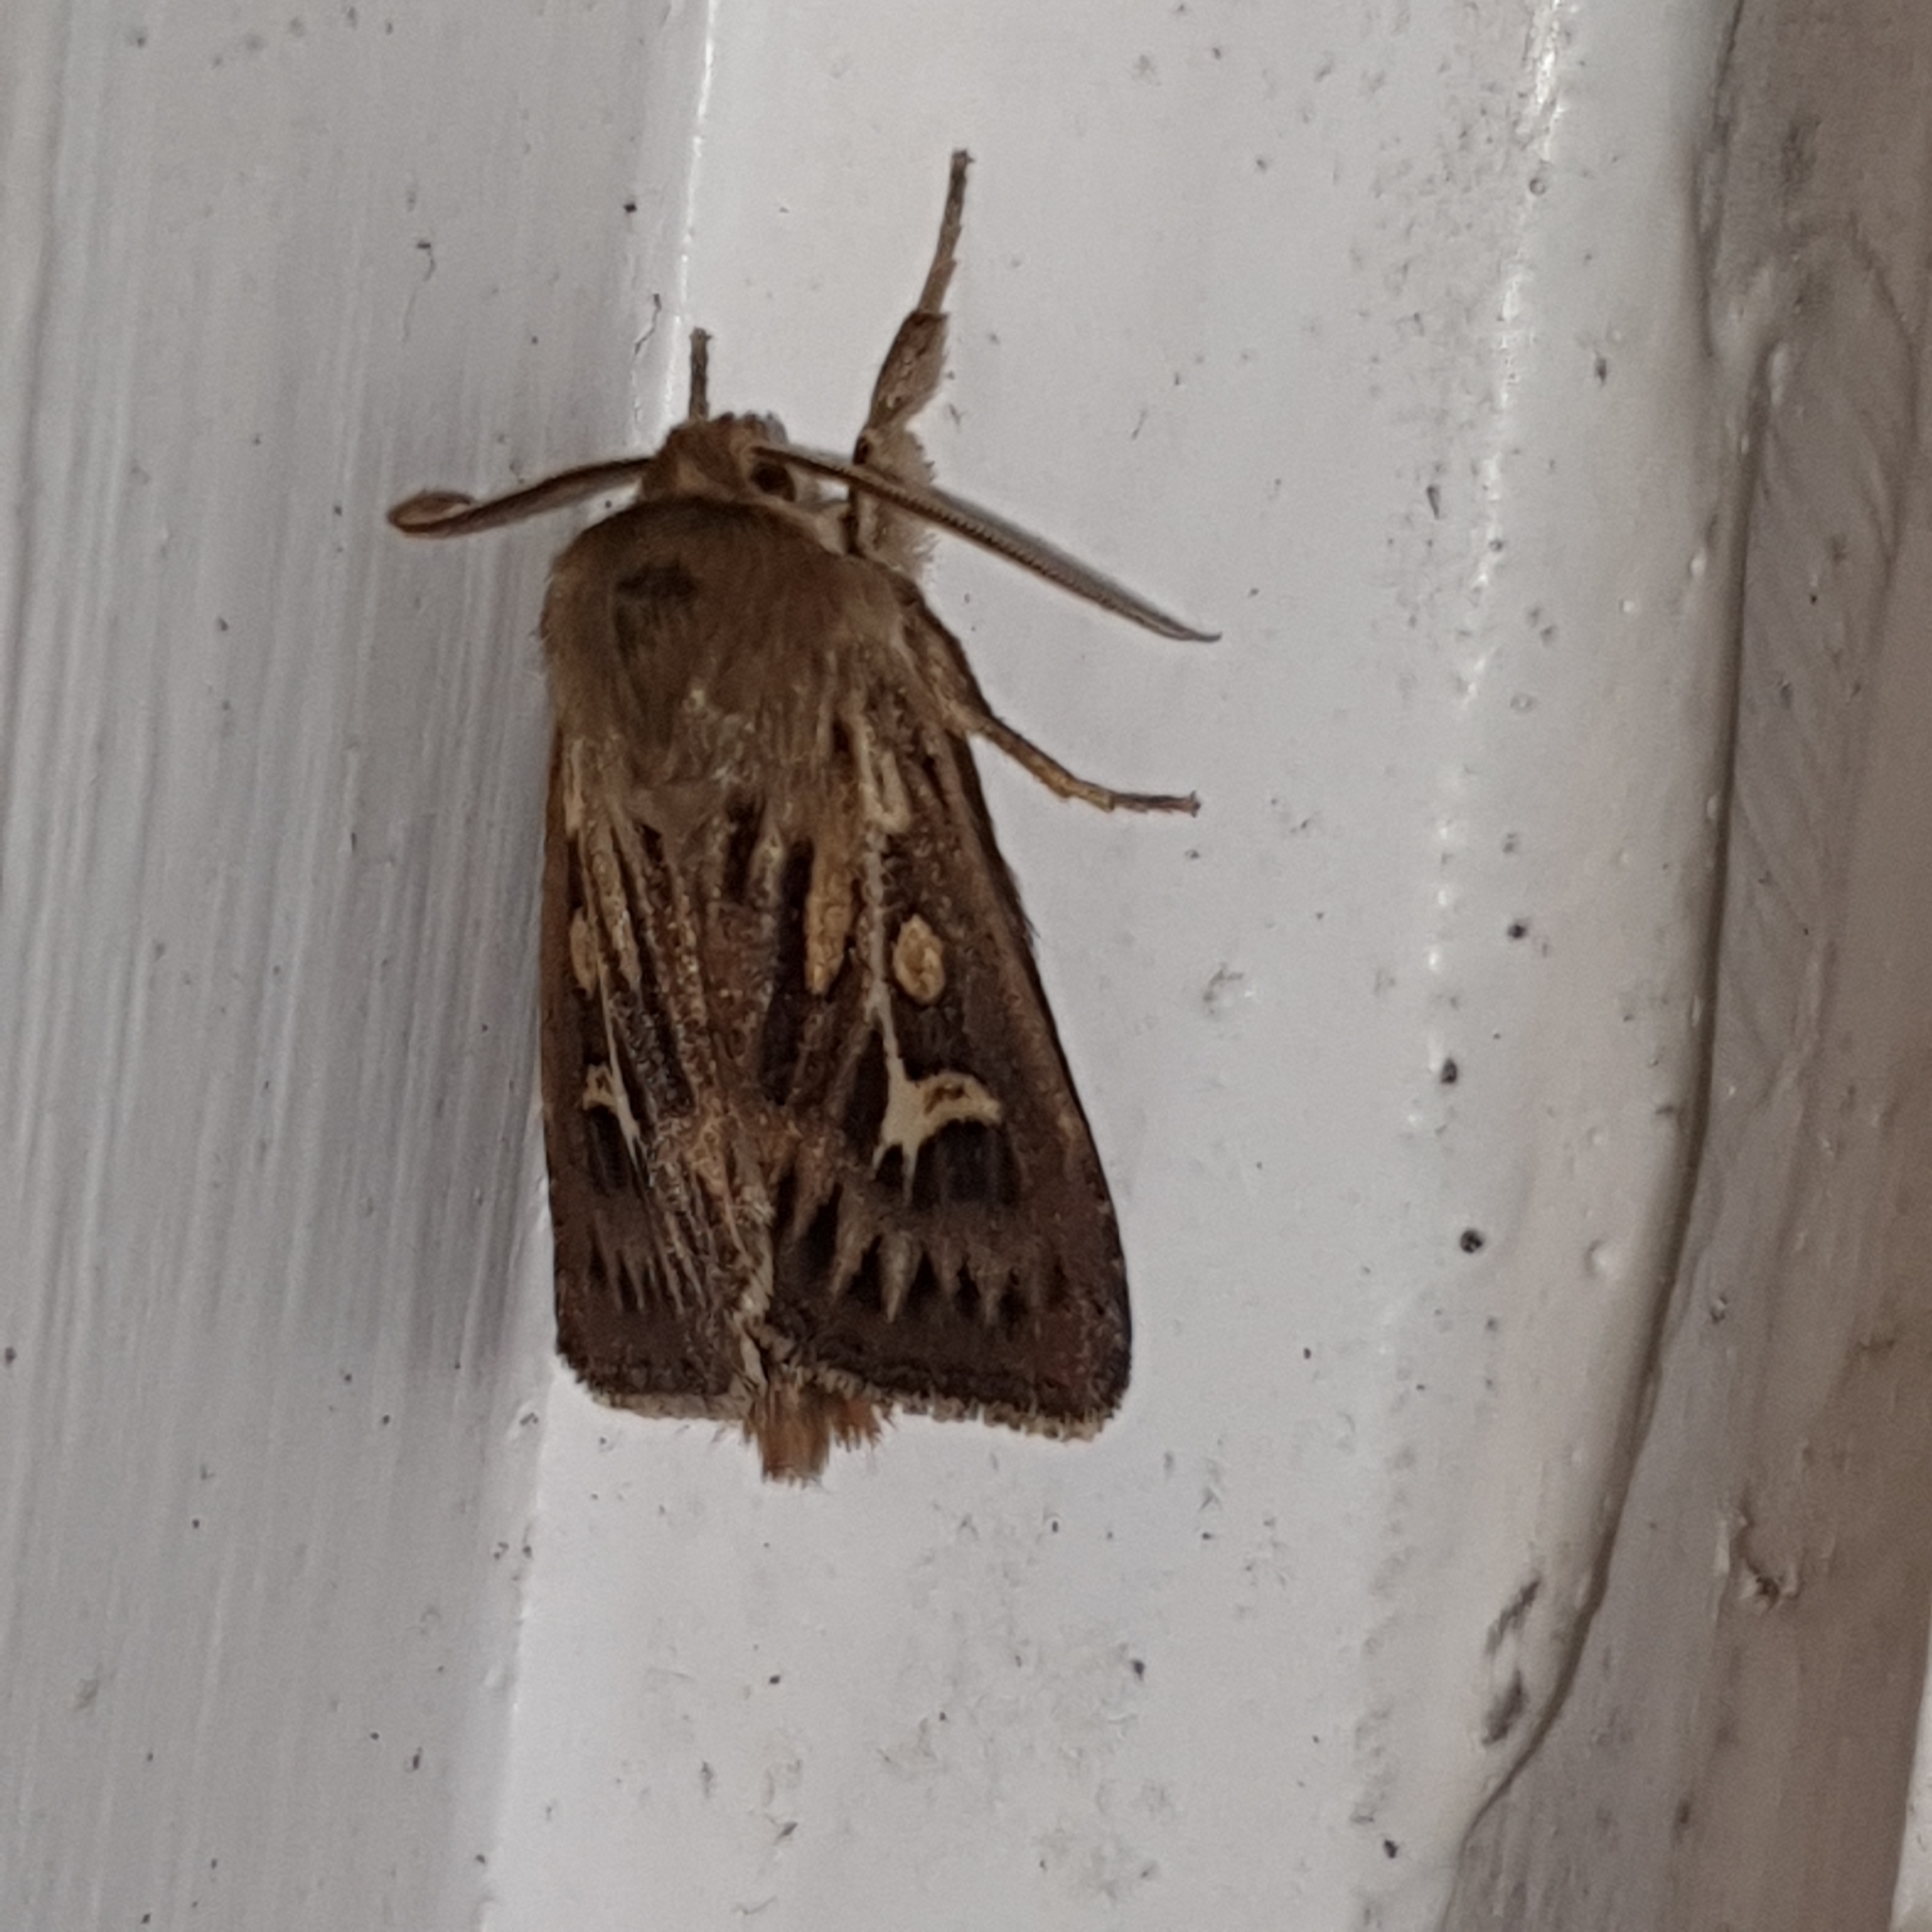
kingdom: Animalia
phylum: Arthropoda
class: Insecta
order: Lepidoptera
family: Noctuidae
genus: Cerapteryx
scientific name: Cerapteryx graminis
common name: Antler moth
